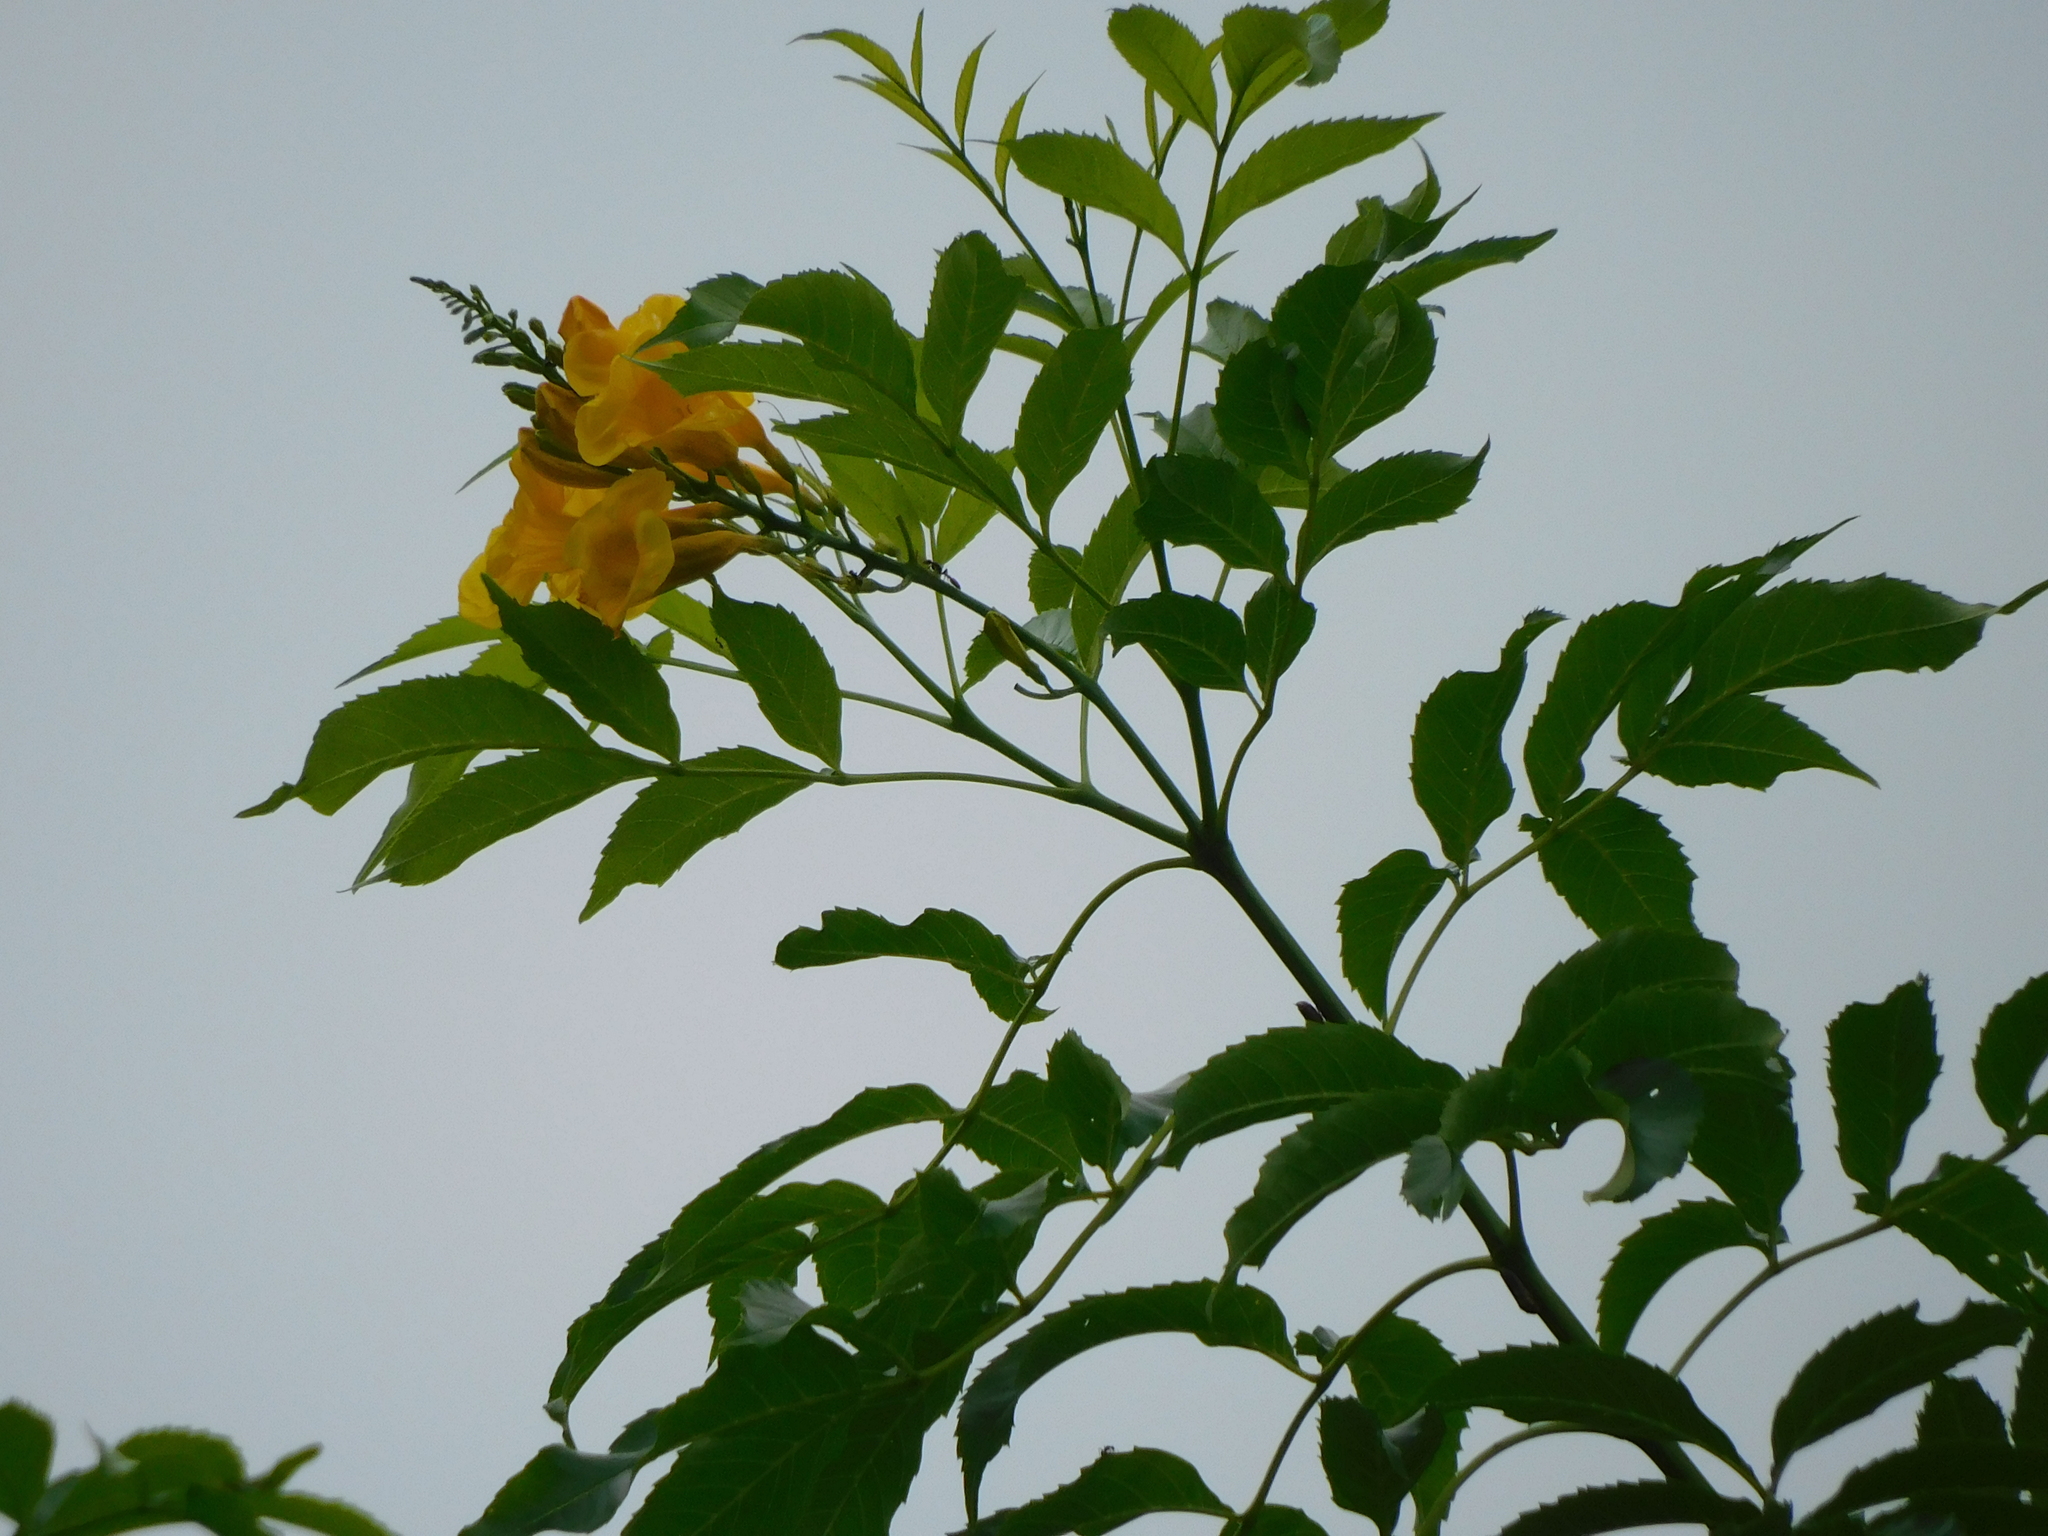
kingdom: Plantae
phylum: Tracheophyta
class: Magnoliopsida
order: Lamiales
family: Bignoniaceae
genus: Tecoma
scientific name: Tecoma stans
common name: Yellow trumpetbush
